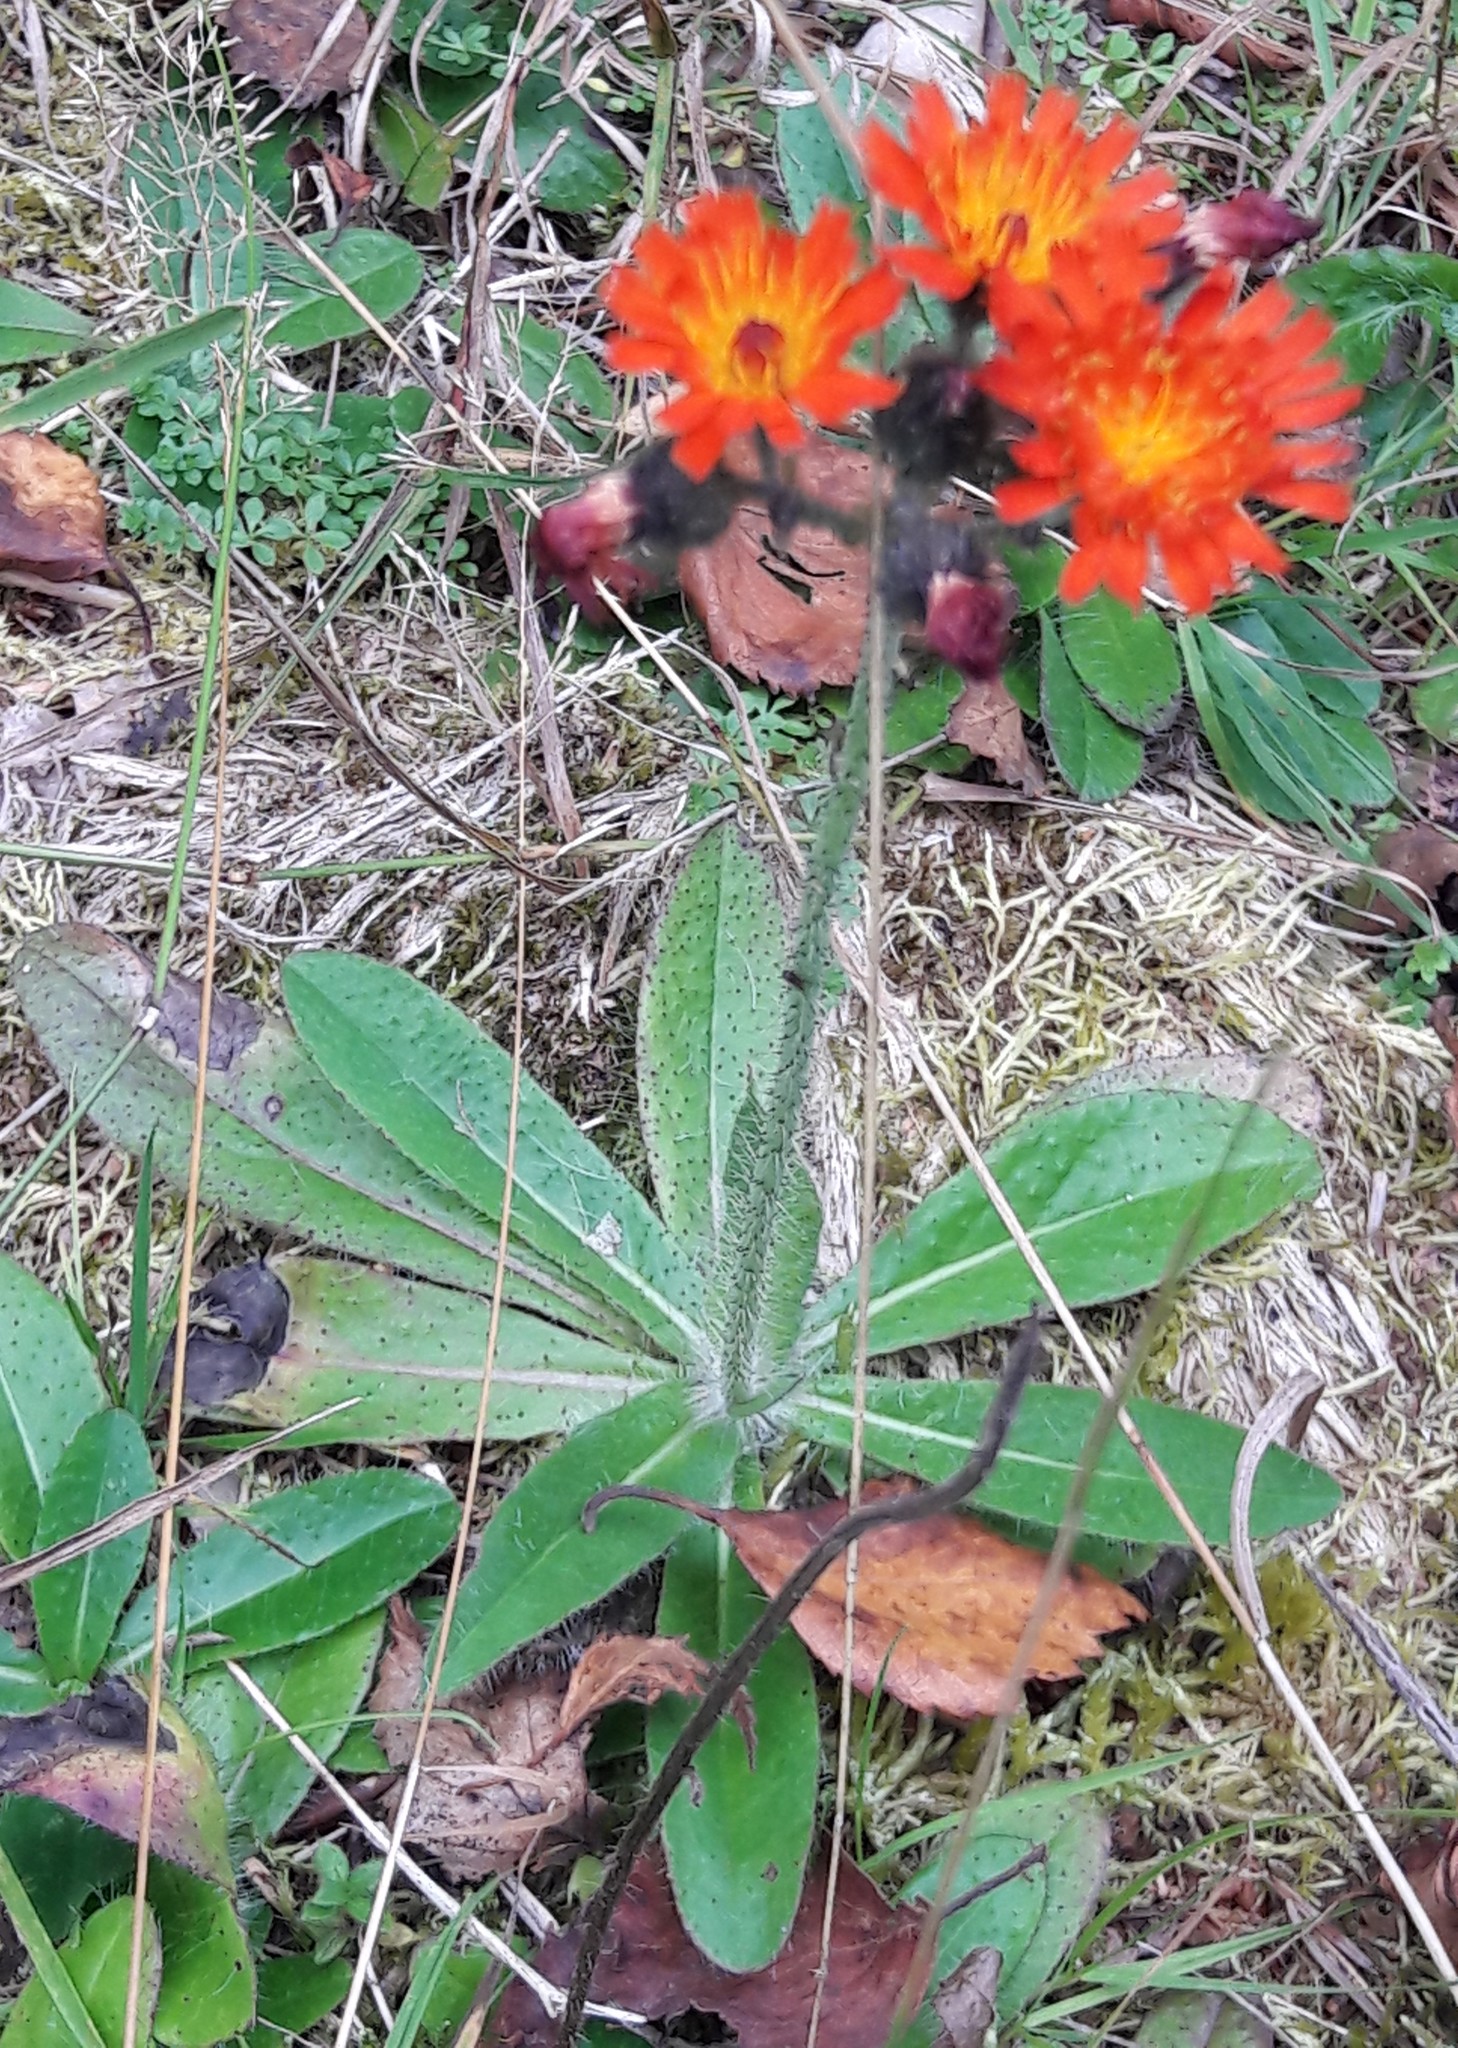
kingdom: Plantae
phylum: Tracheophyta
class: Magnoliopsida
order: Asterales
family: Asteraceae
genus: Pilosella
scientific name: Pilosella aurantiaca
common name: Fox-and-cubs
